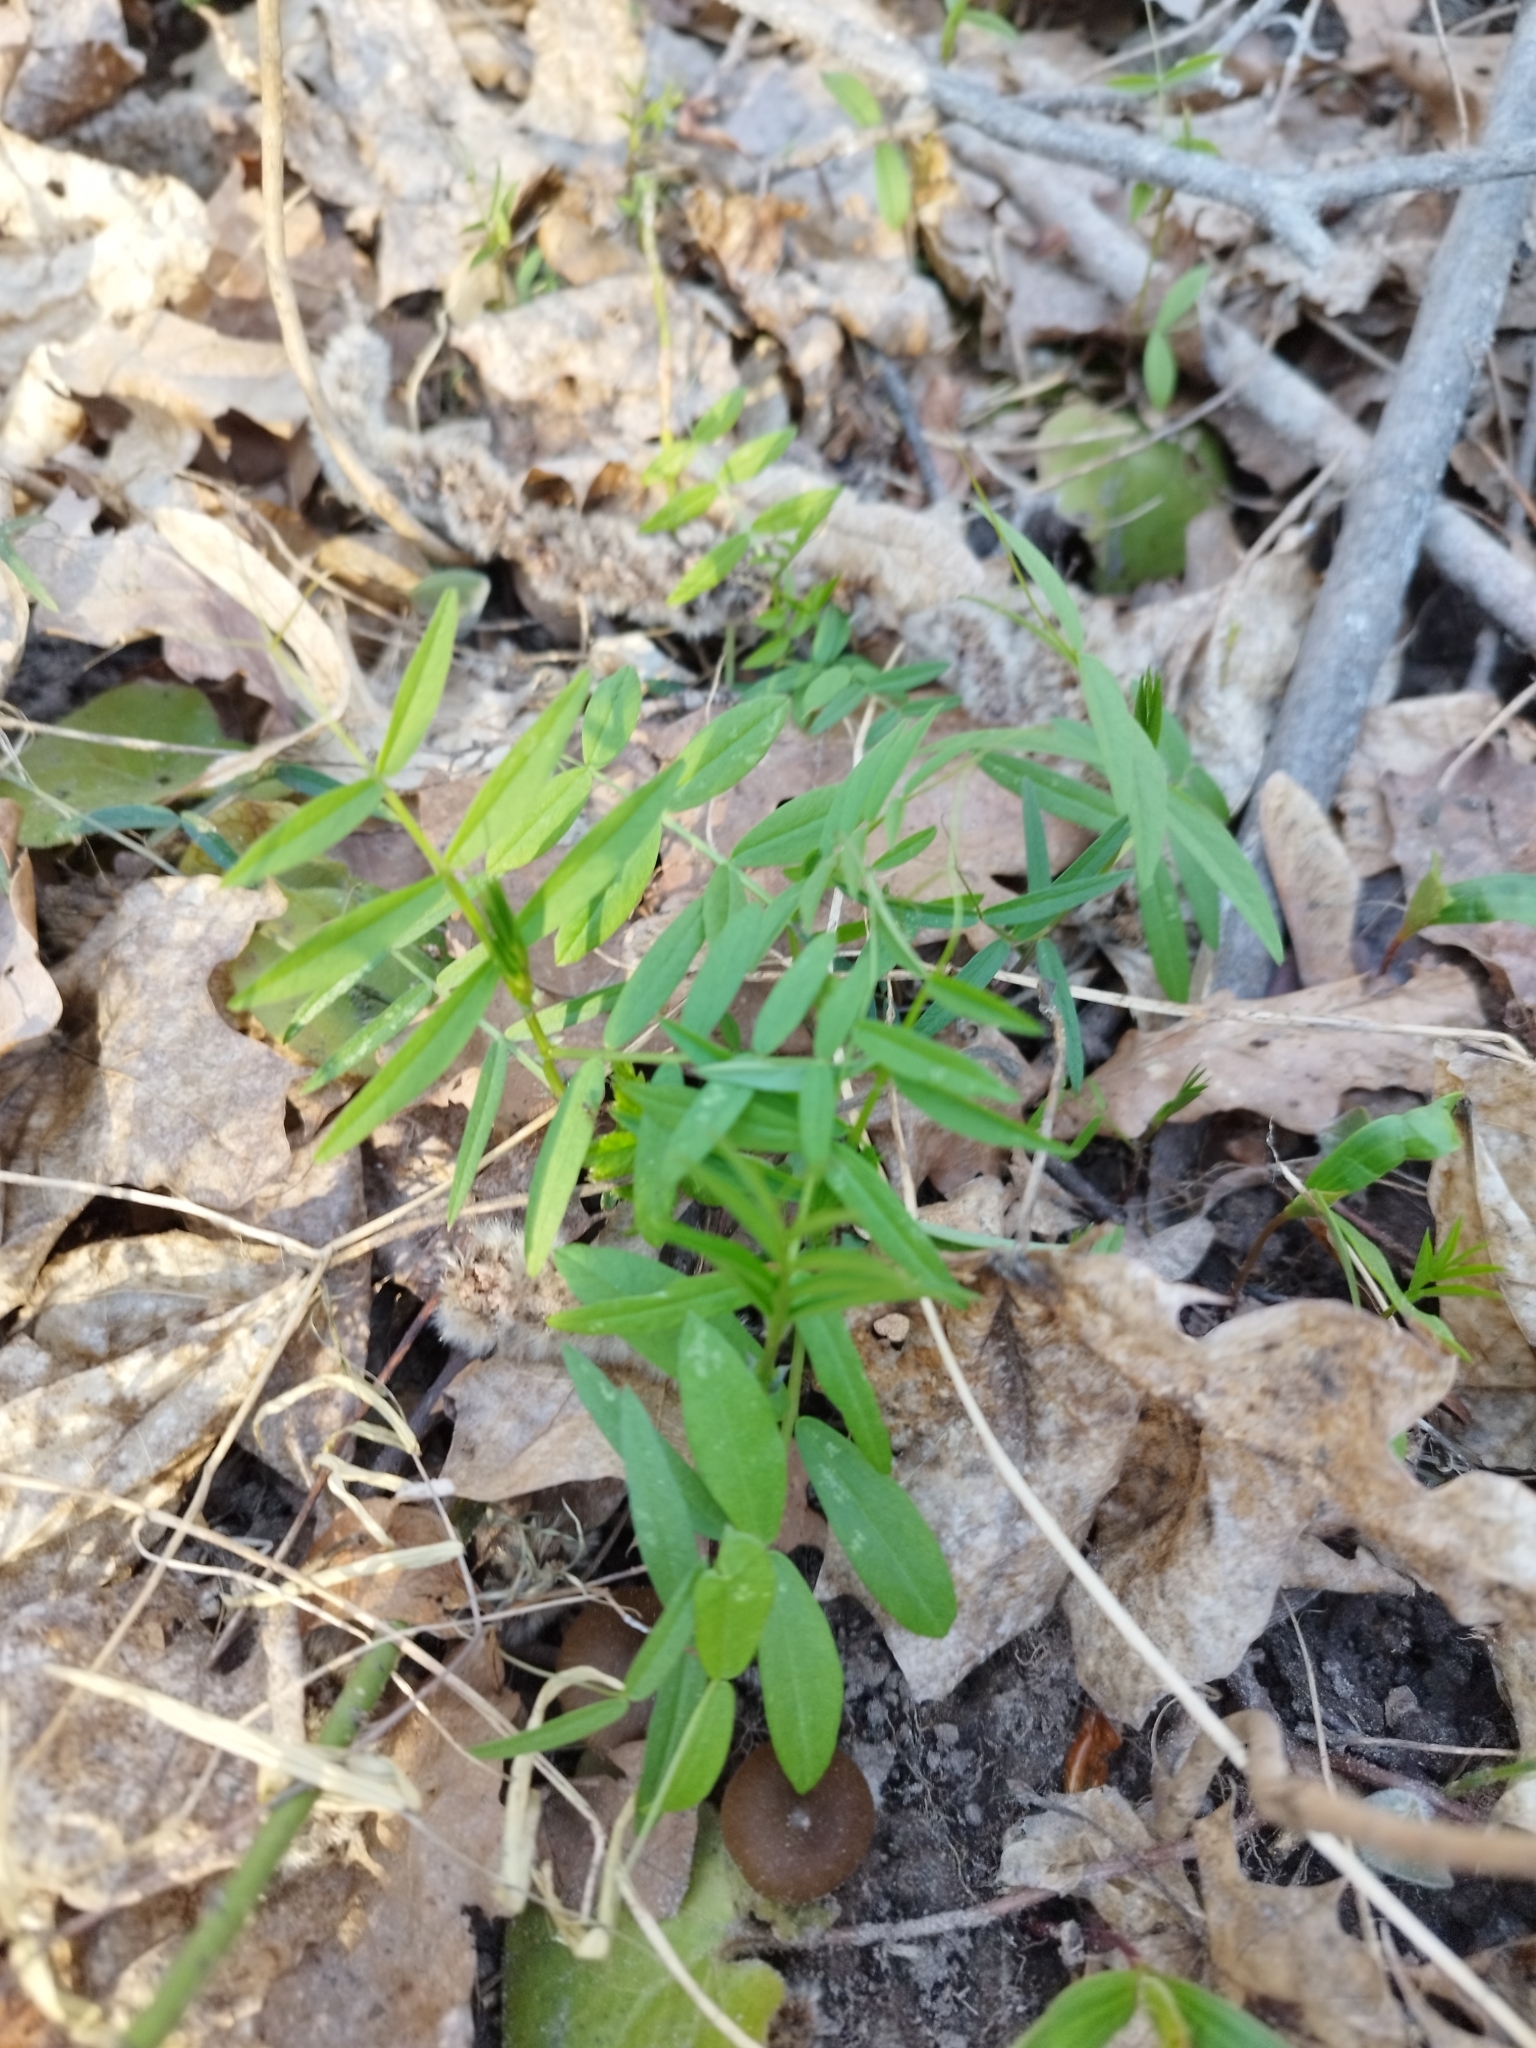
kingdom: Plantae
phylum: Tracheophyta
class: Magnoliopsida
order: Fabales
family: Fabaceae
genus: Vicia
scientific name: Vicia sepium
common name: Bush vetch
